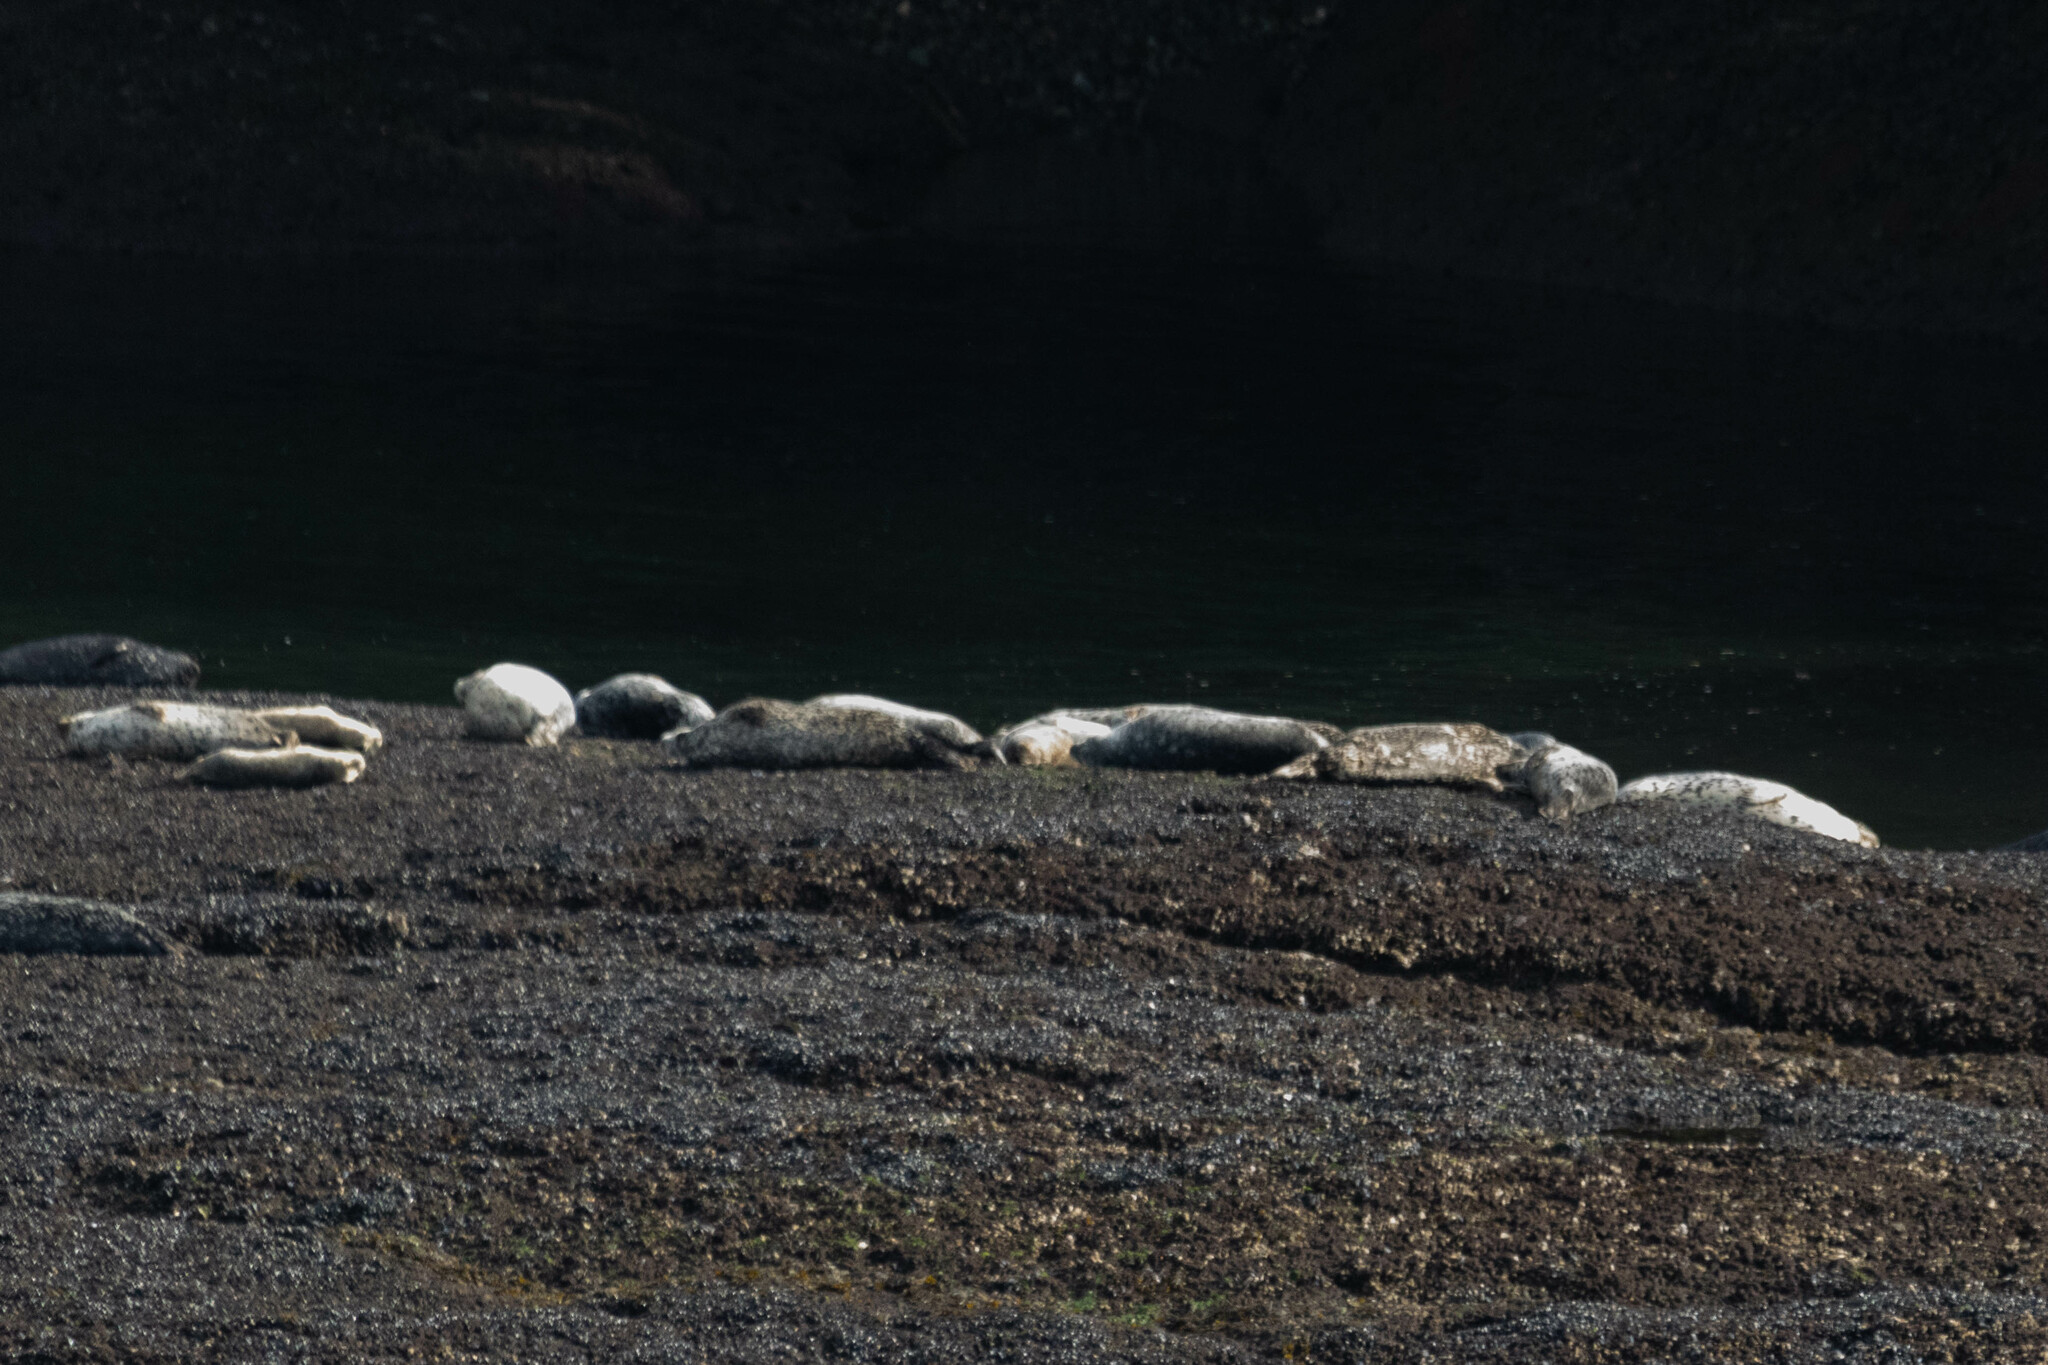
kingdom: Animalia
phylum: Chordata
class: Mammalia
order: Carnivora
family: Phocidae
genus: Phoca
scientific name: Phoca vitulina
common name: Harbor seal
